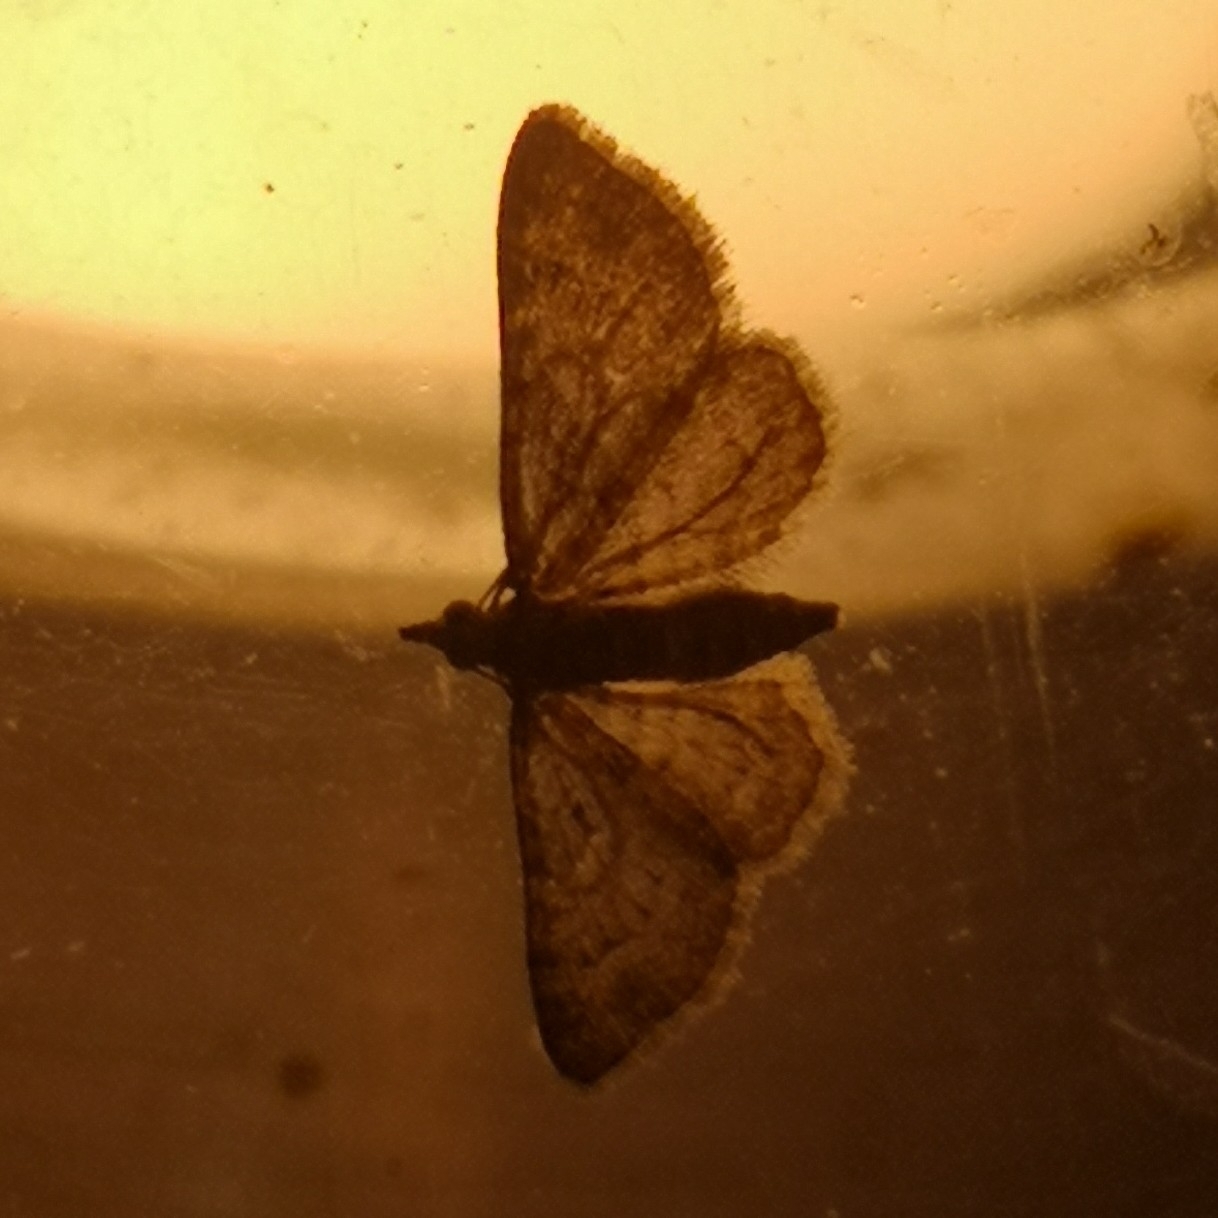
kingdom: Animalia
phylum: Arthropoda
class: Insecta
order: Lepidoptera
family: Geometridae
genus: Gymnoscelis
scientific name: Gymnoscelis rufifasciata
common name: Double-striped pug
